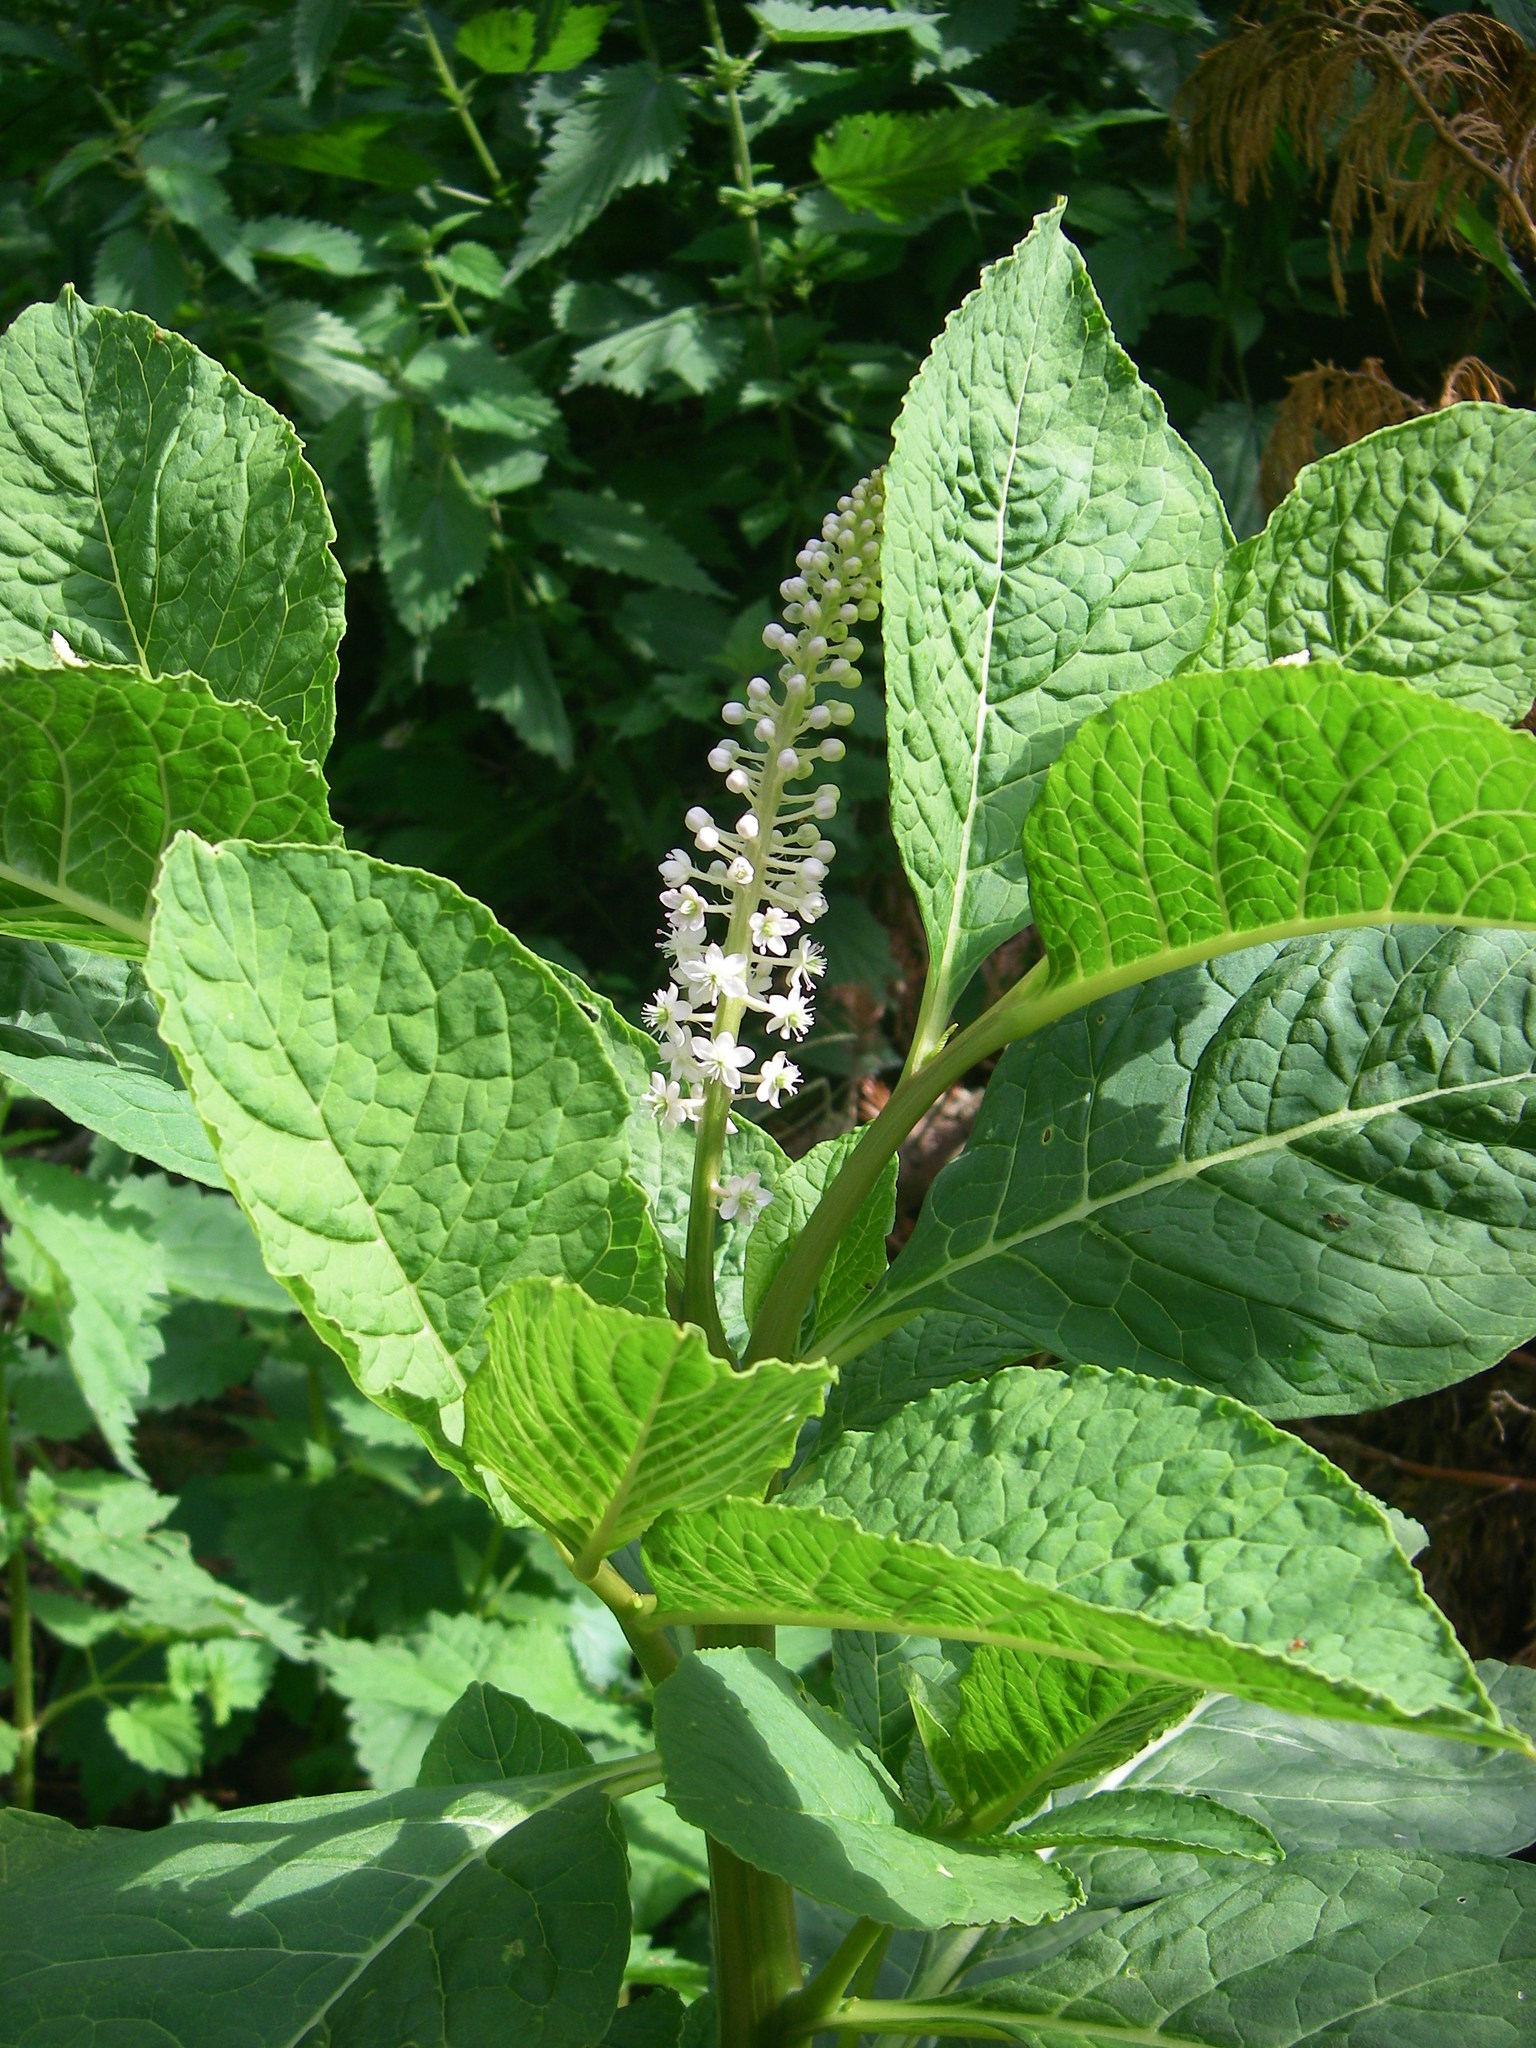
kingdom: Plantae
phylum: Tracheophyta
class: Magnoliopsida
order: Caryophyllales
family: Phytolaccaceae
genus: Phytolacca
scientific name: Phytolacca acinosa
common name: Indian pokeweed
